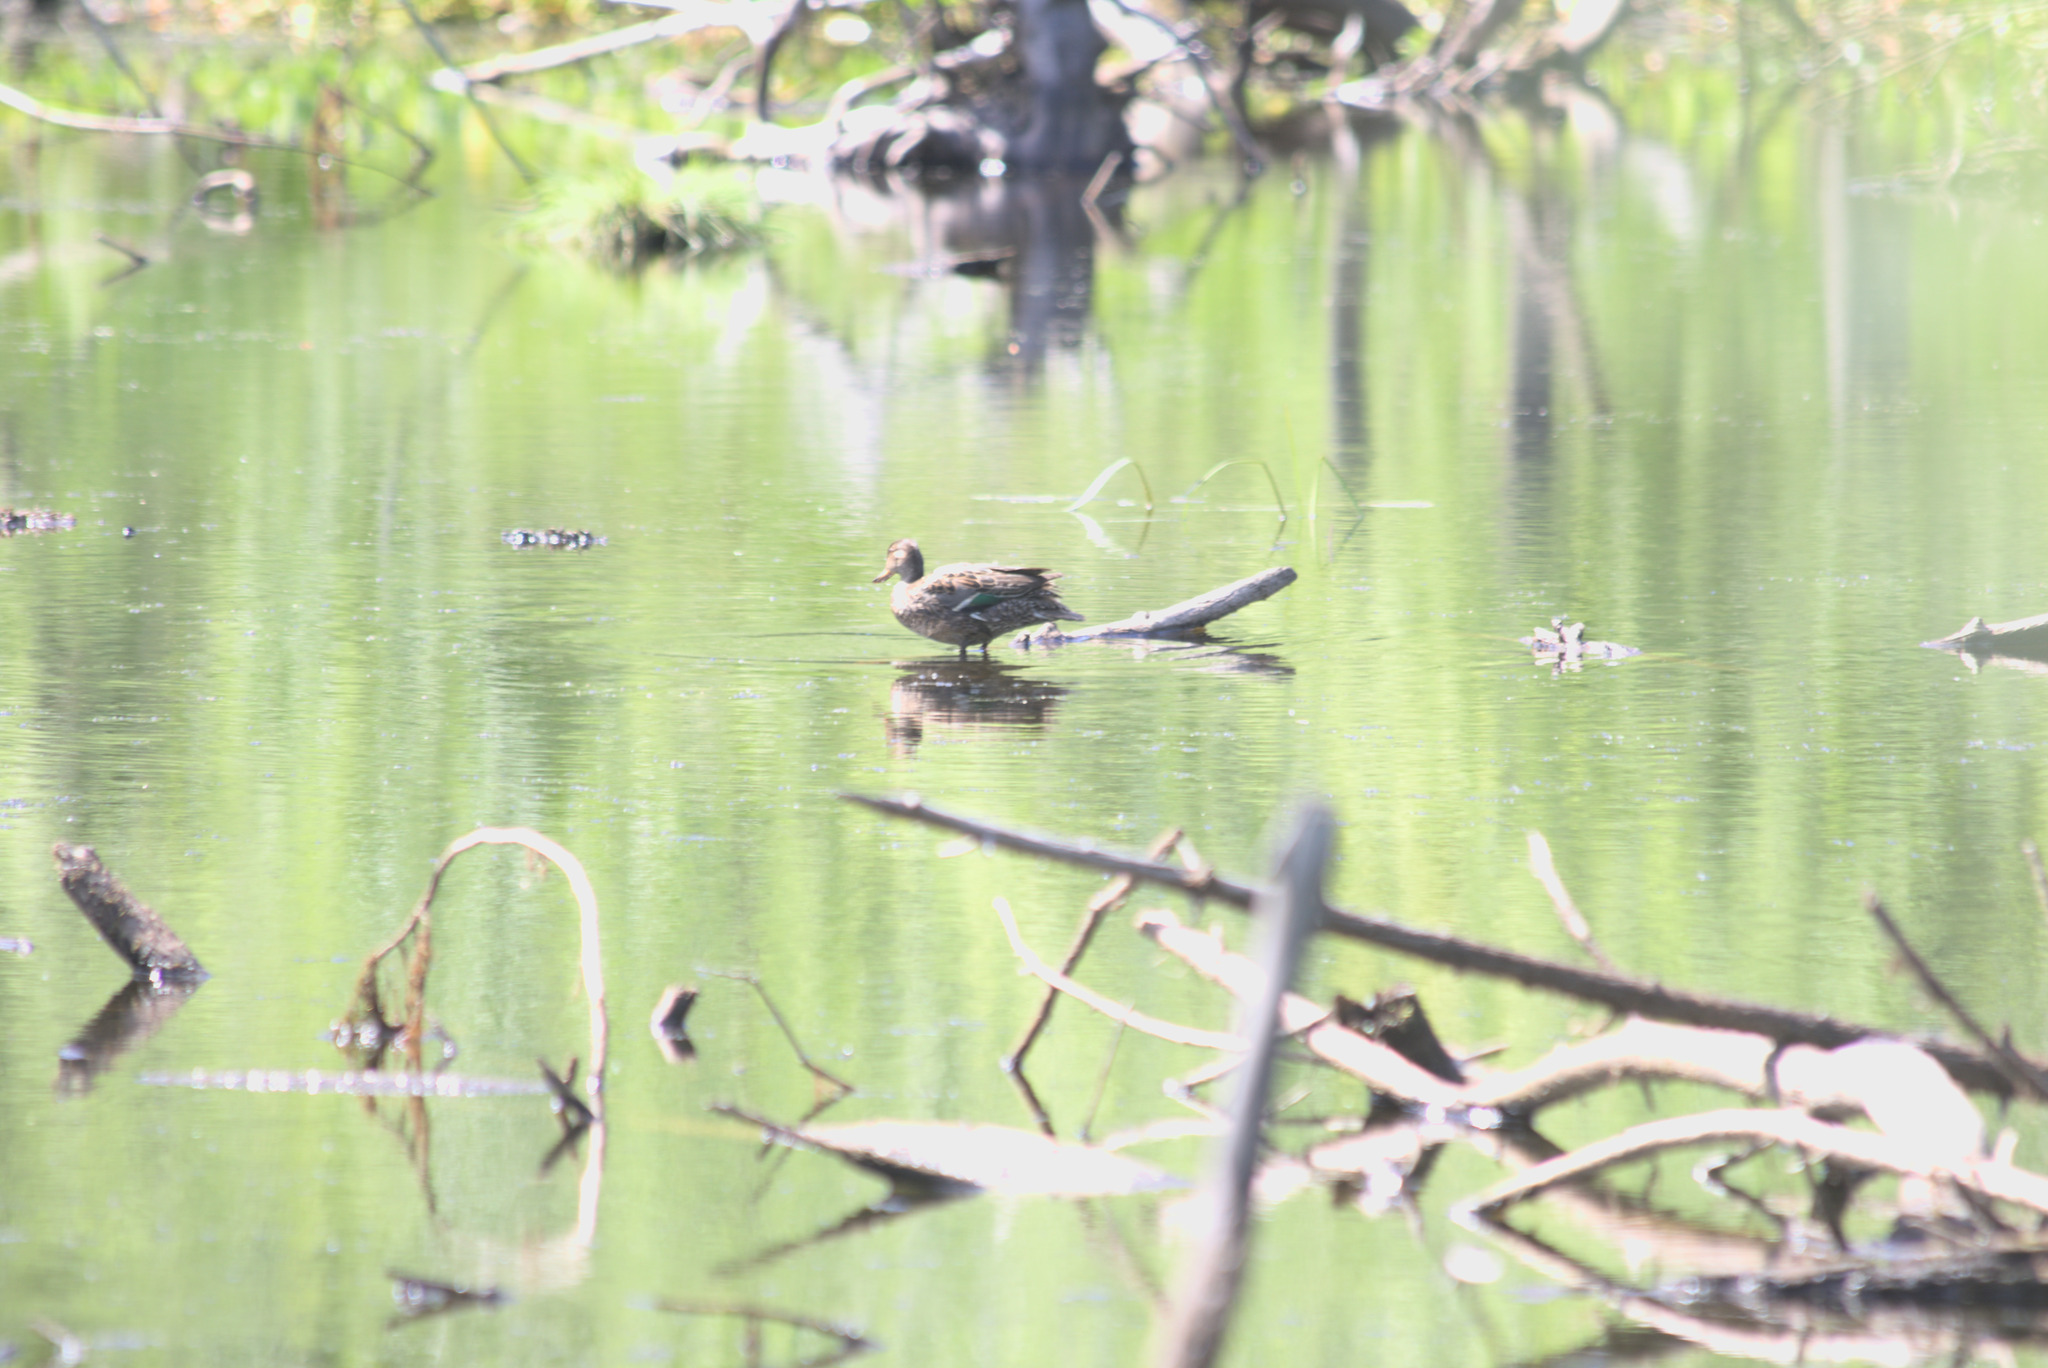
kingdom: Animalia
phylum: Chordata
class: Aves
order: Anseriformes
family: Anatidae
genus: Anas
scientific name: Anas crecca
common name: Eurasian teal
